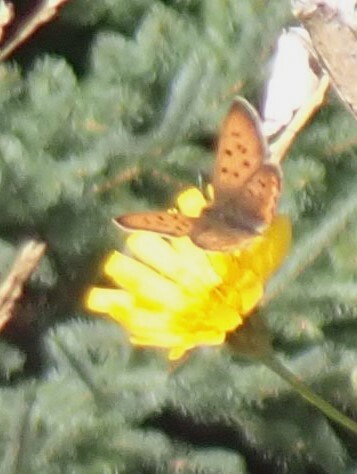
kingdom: Animalia
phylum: Arthropoda
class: Insecta
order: Lepidoptera
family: Lycaenidae
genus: Tharsalea
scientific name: Tharsalea helloides
